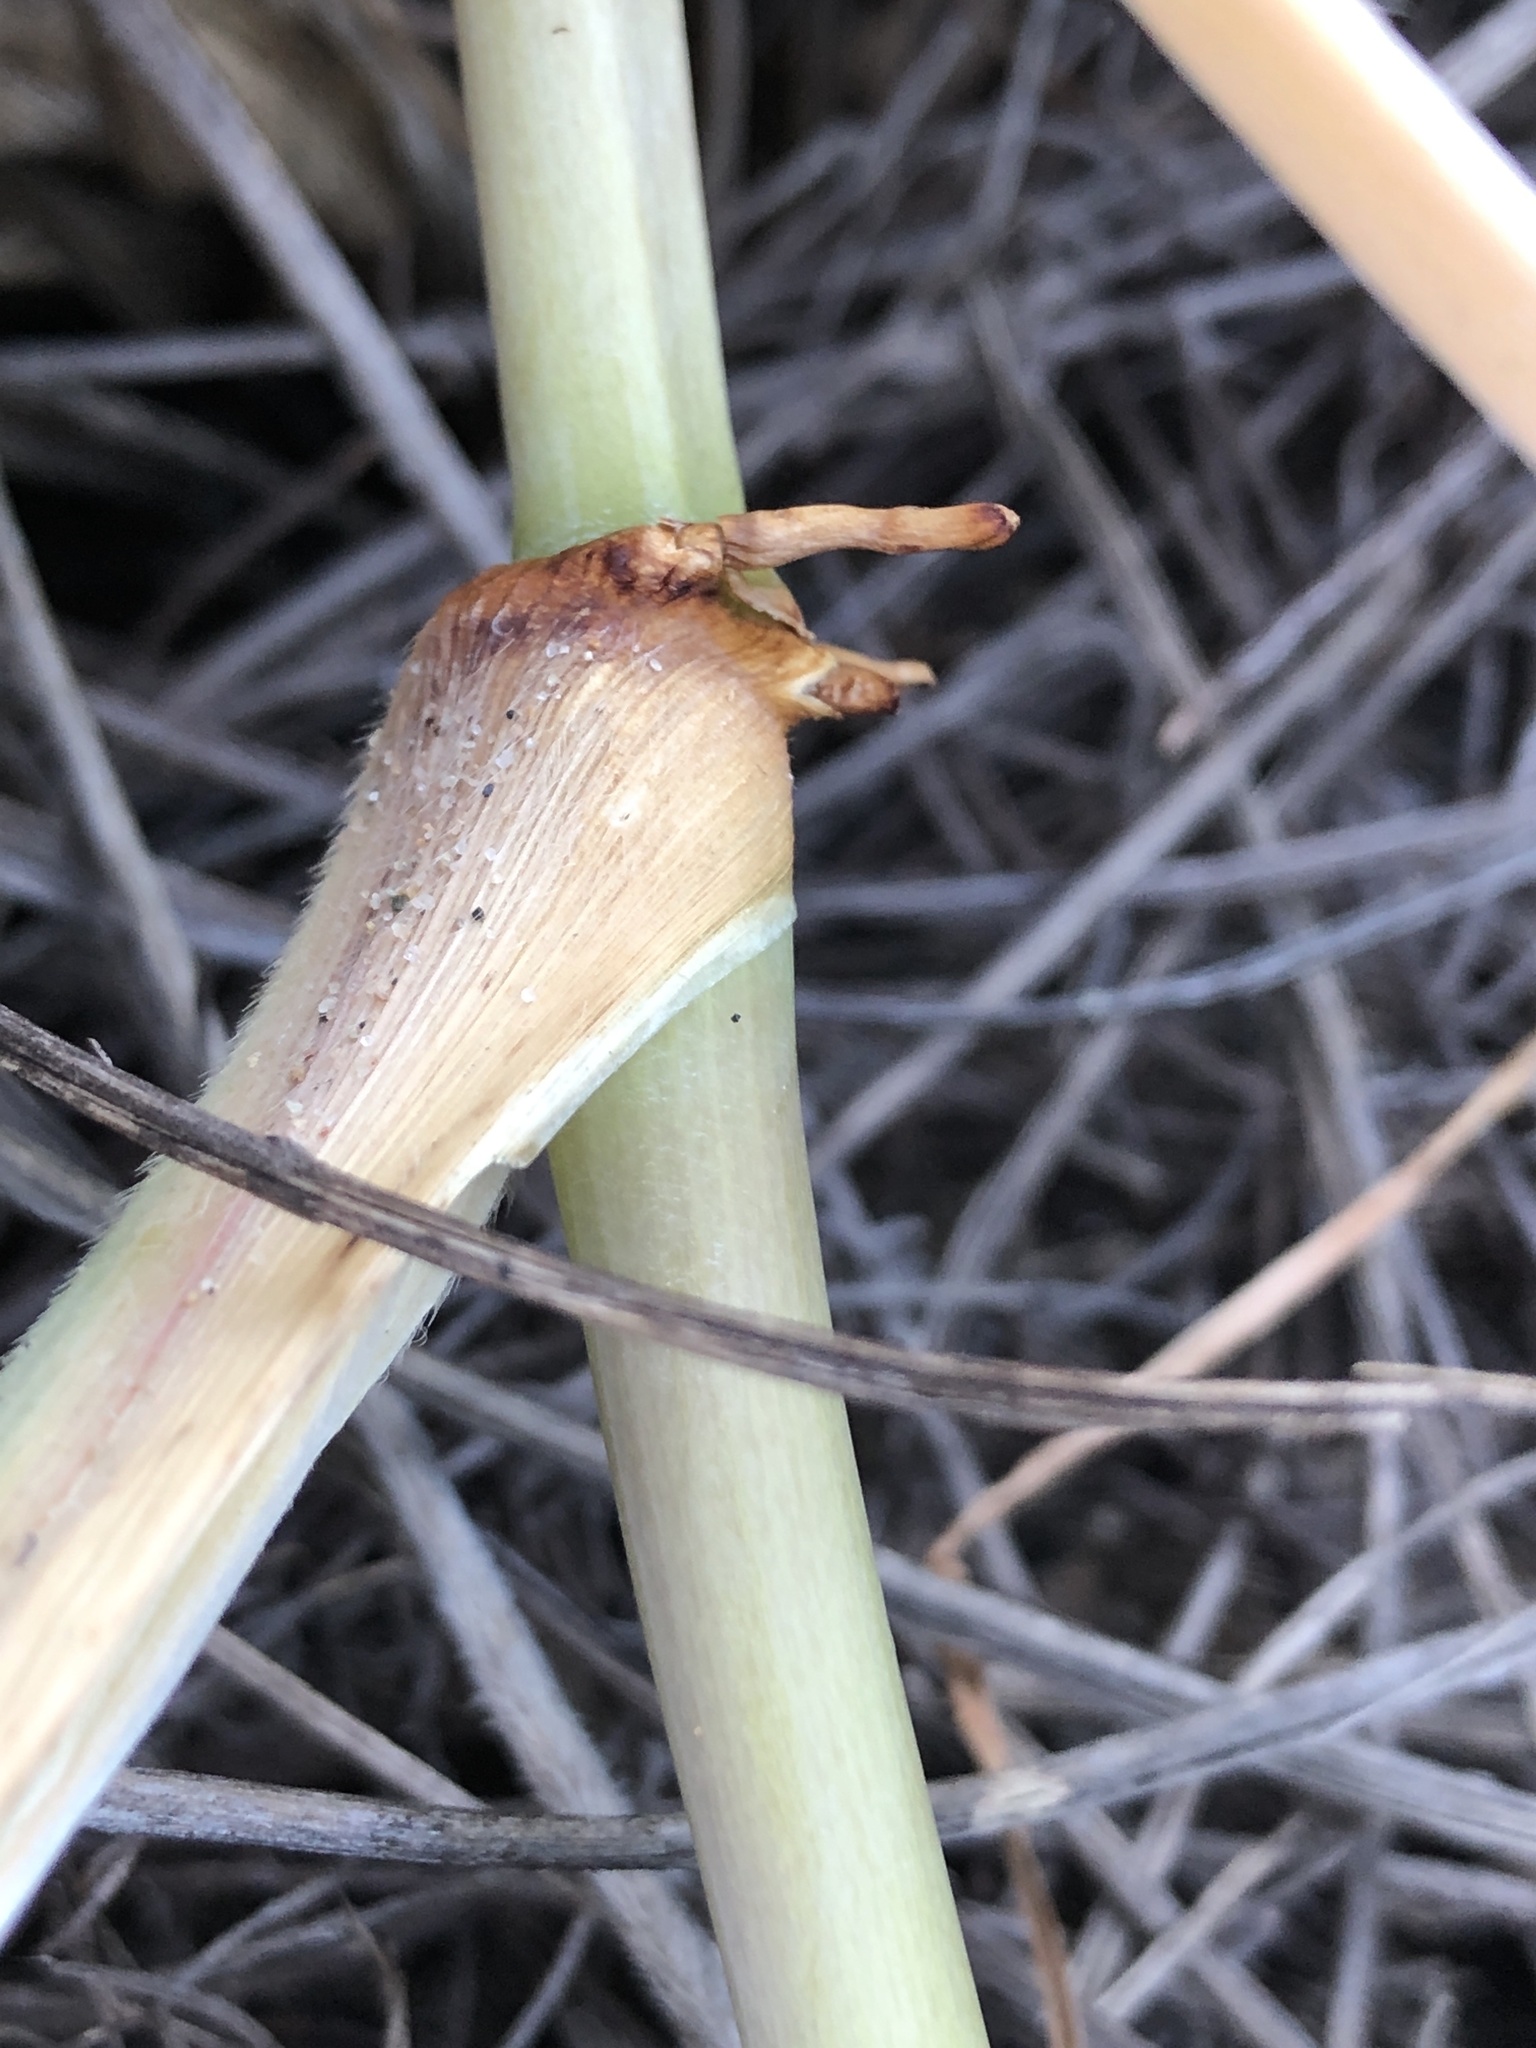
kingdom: Plantae
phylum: Tracheophyta
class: Liliopsida
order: Poales
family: Poaceae
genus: Spinifex
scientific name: Spinifex sericeus
